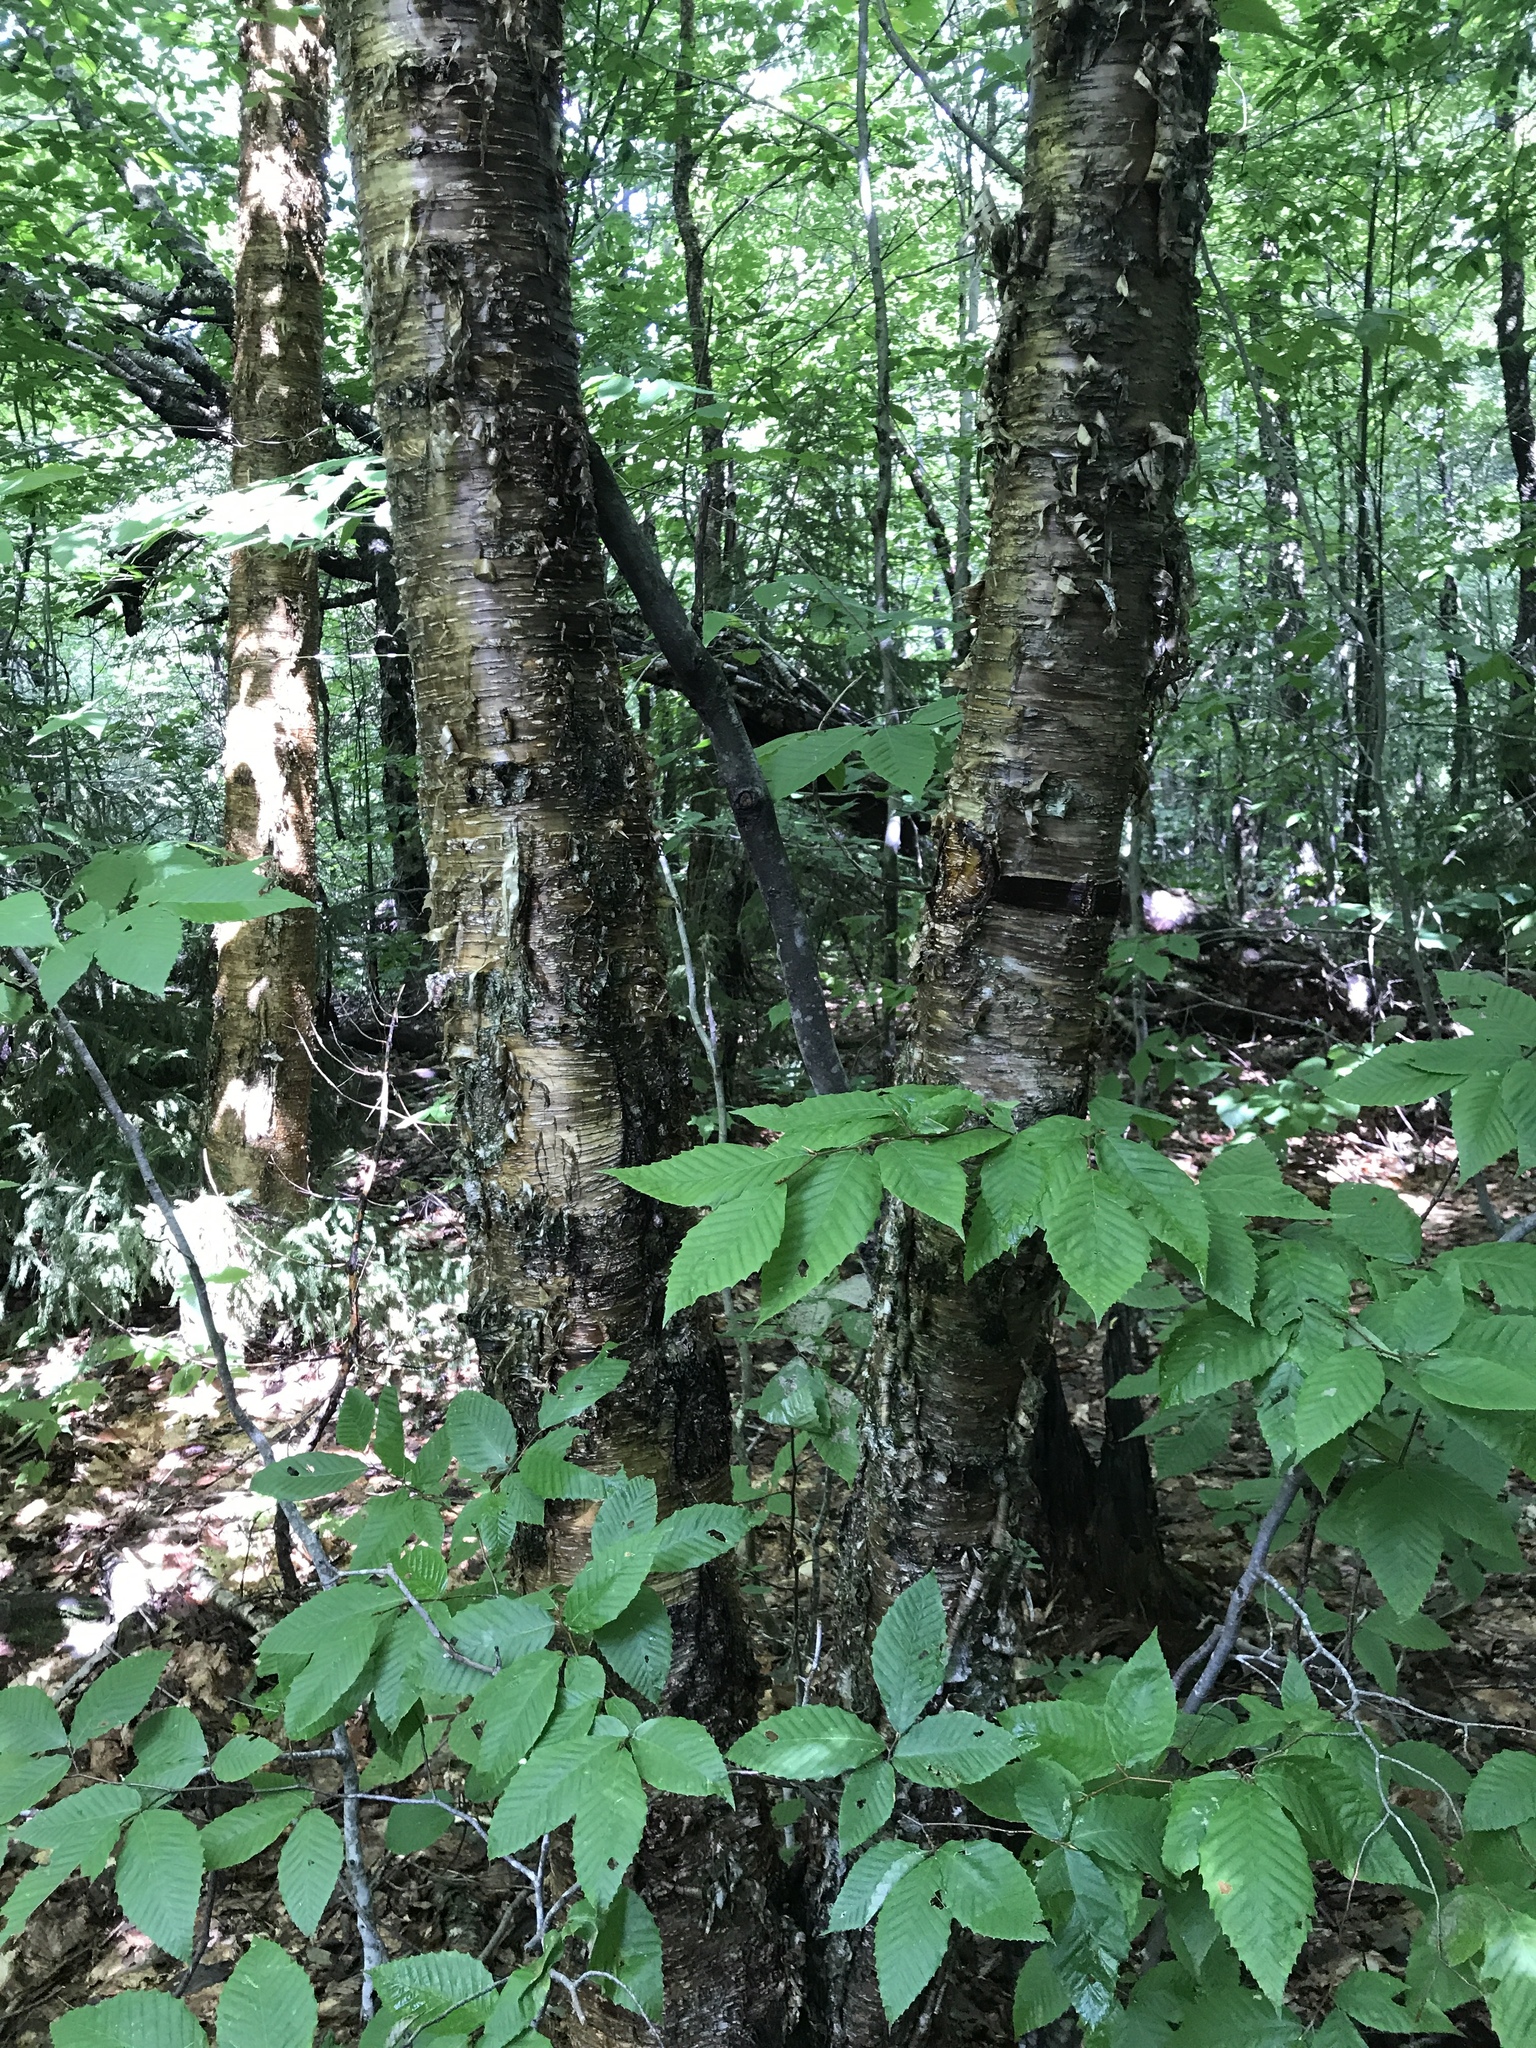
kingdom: Plantae
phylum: Tracheophyta
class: Magnoliopsida
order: Fagales
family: Betulaceae
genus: Betula
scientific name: Betula alleghaniensis
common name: Yellow birch
